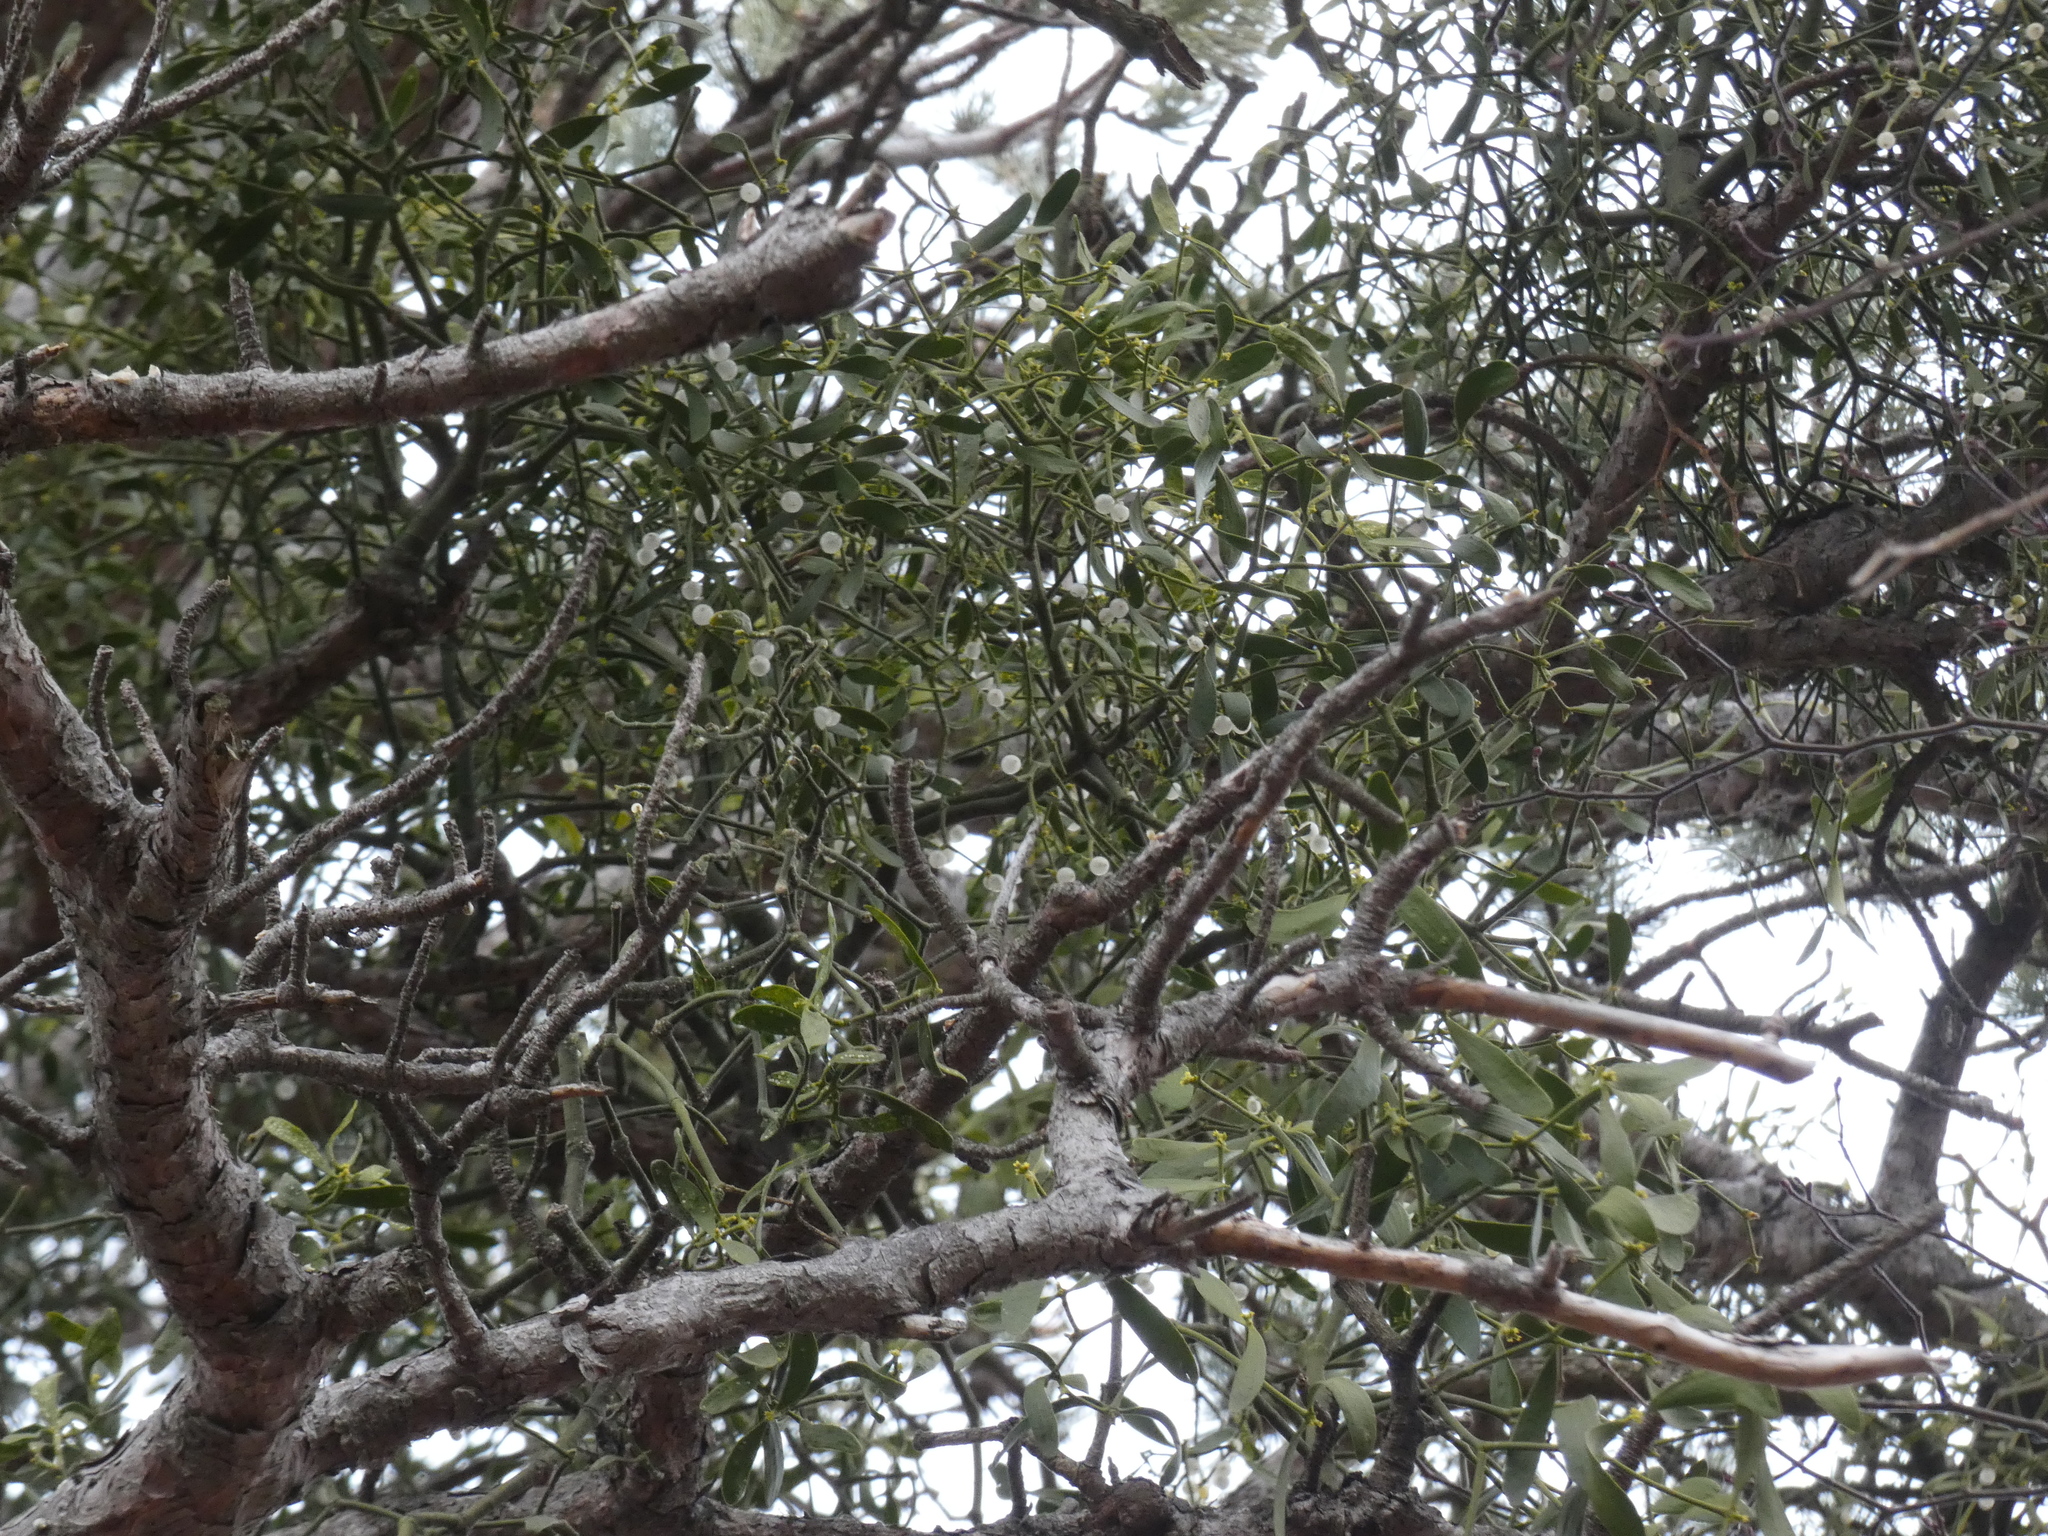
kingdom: Plantae
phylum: Tracheophyta
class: Magnoliopsida
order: Santalales
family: Viscaceae
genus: Viscum
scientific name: Viscum laxum
